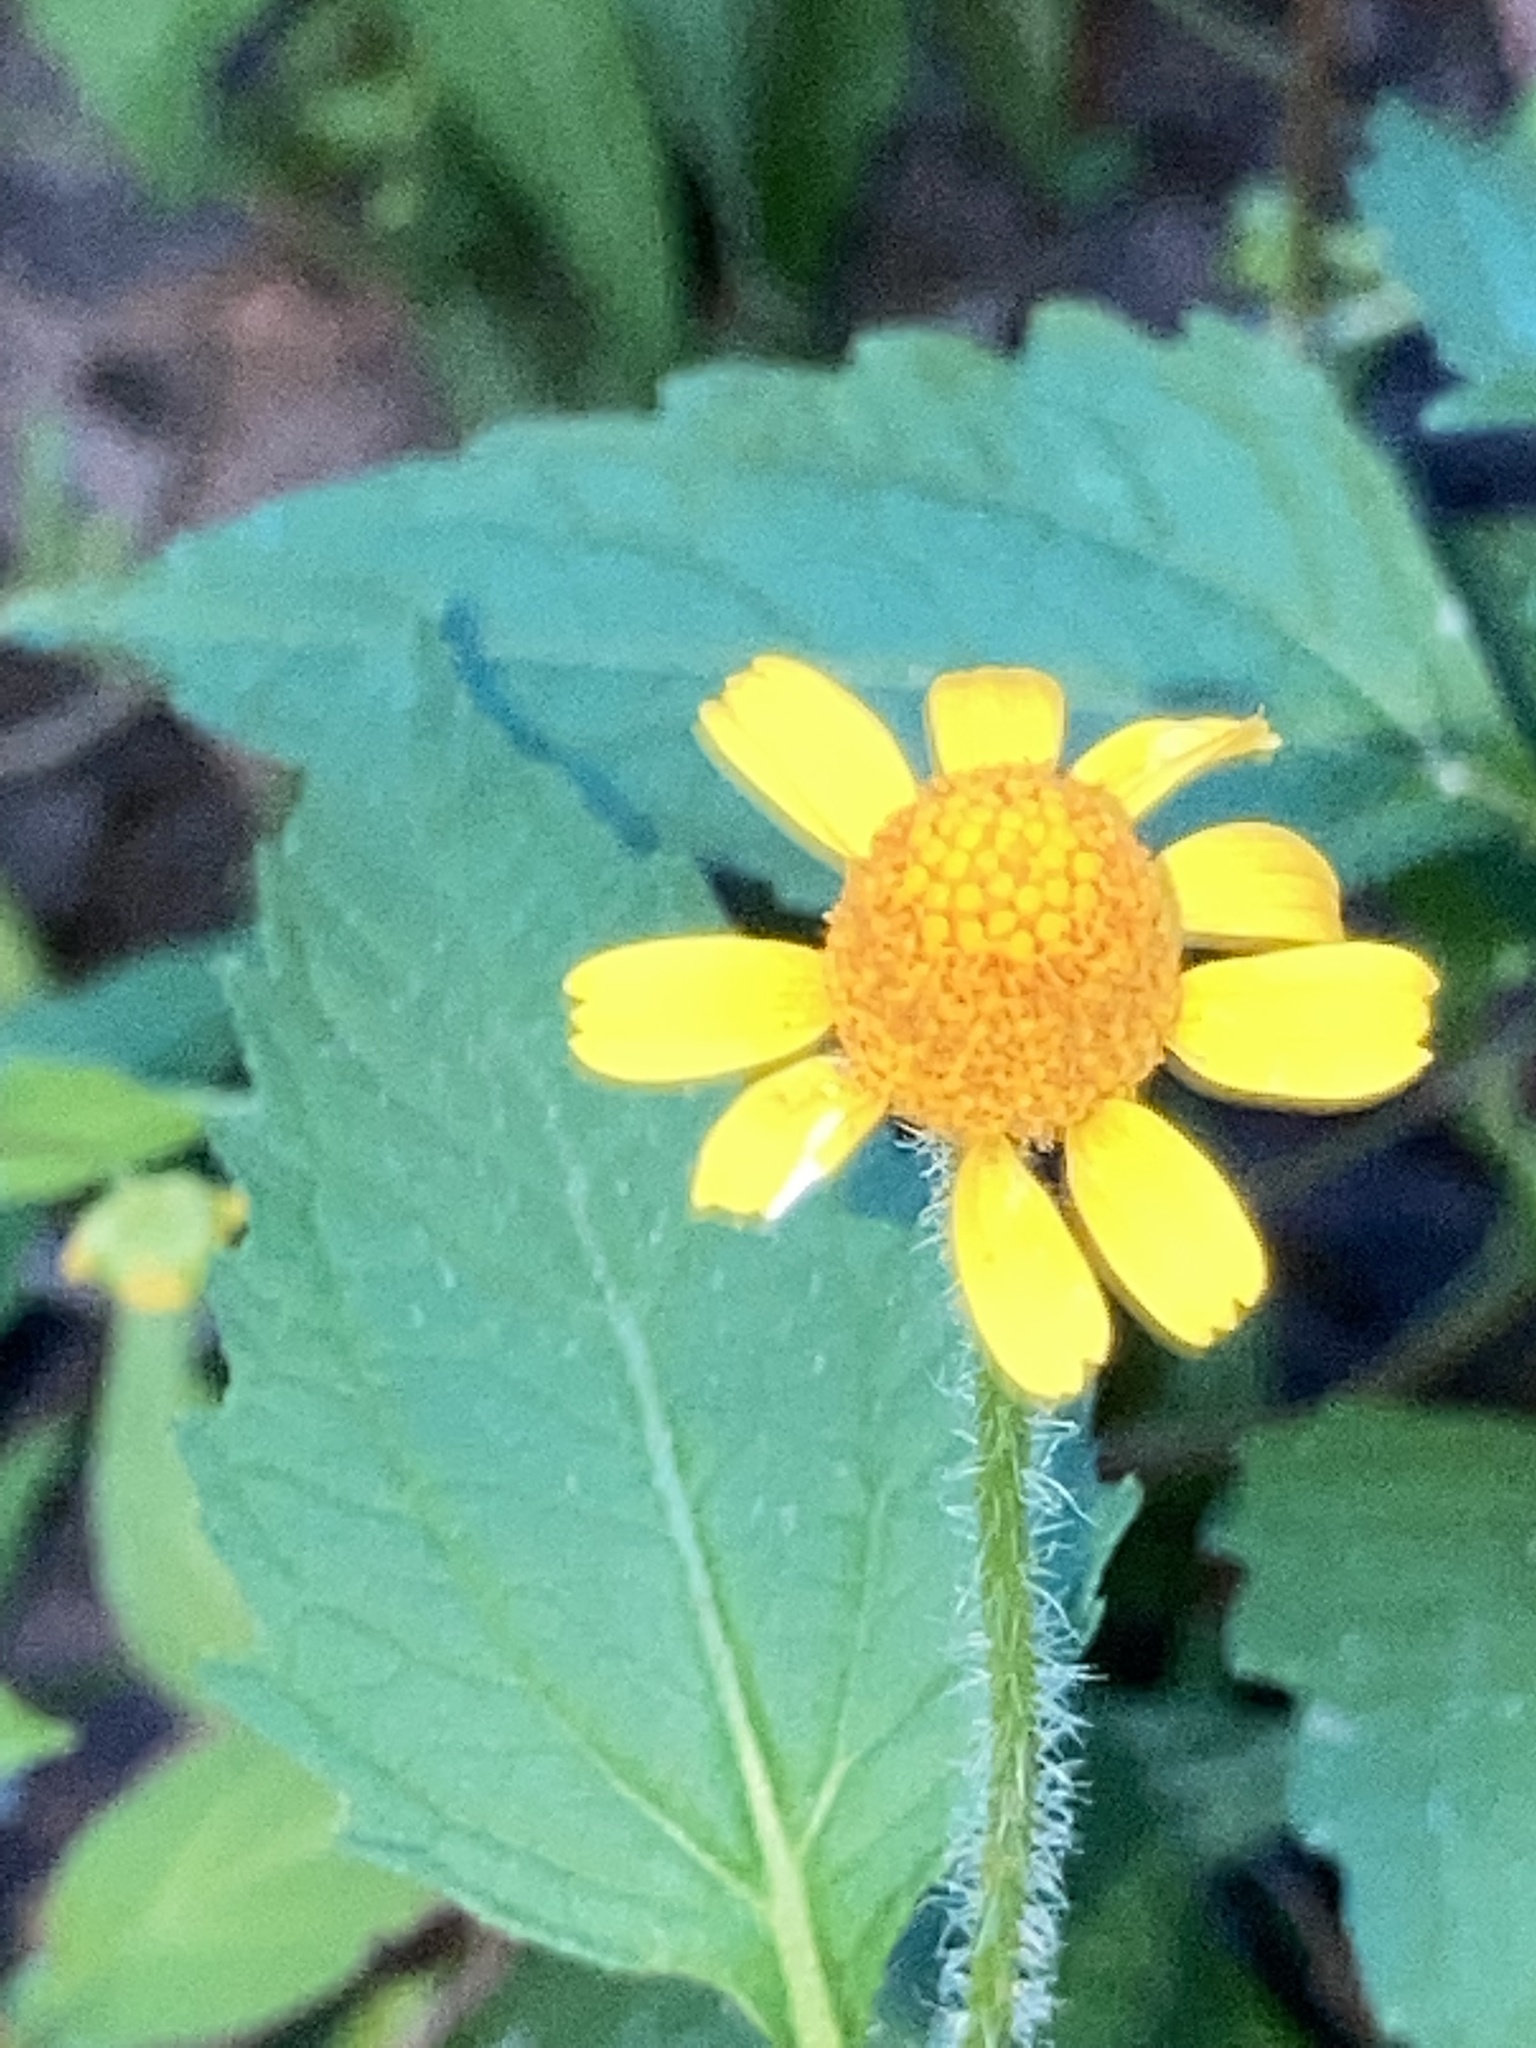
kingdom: Plantae
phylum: Tracheophyta
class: Magnoliopsida
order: Asterales
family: Asteraceae
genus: Acmella
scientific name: Acmella repens
